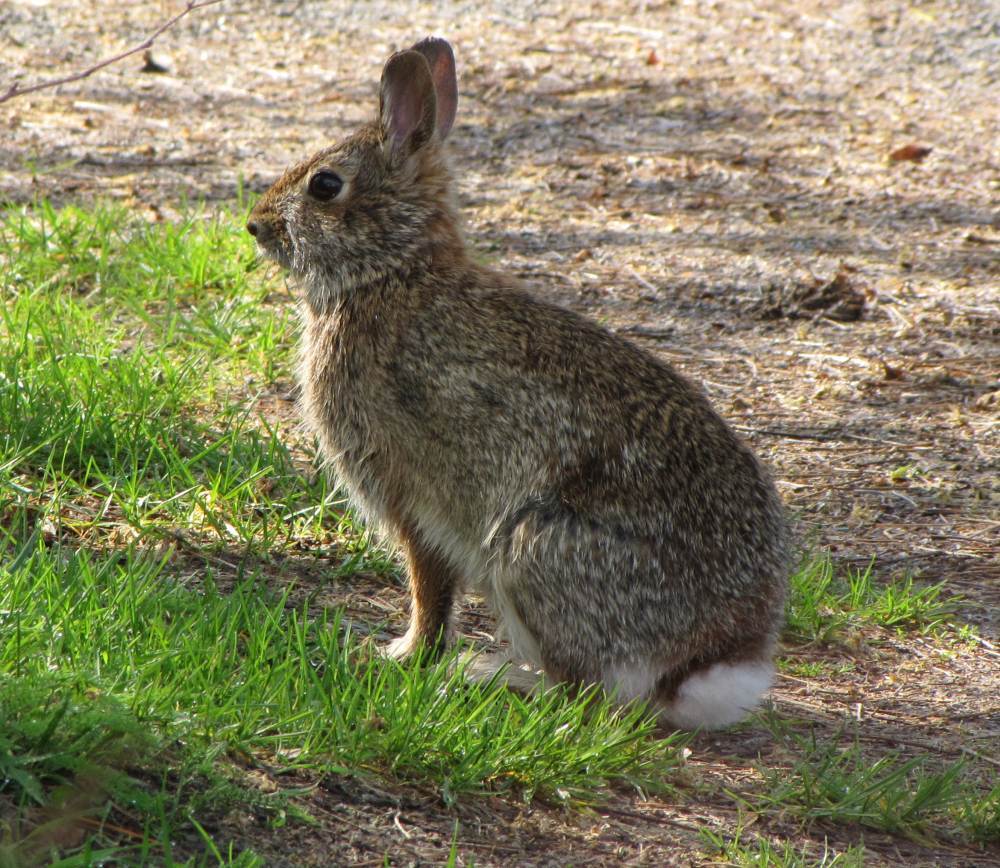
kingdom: Animalia
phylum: Chordata
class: Mammalia
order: Lagomorpha
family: Leporidae
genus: Sylvilagus
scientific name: Sylvilagus floridanus
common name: Eastern cottontail
